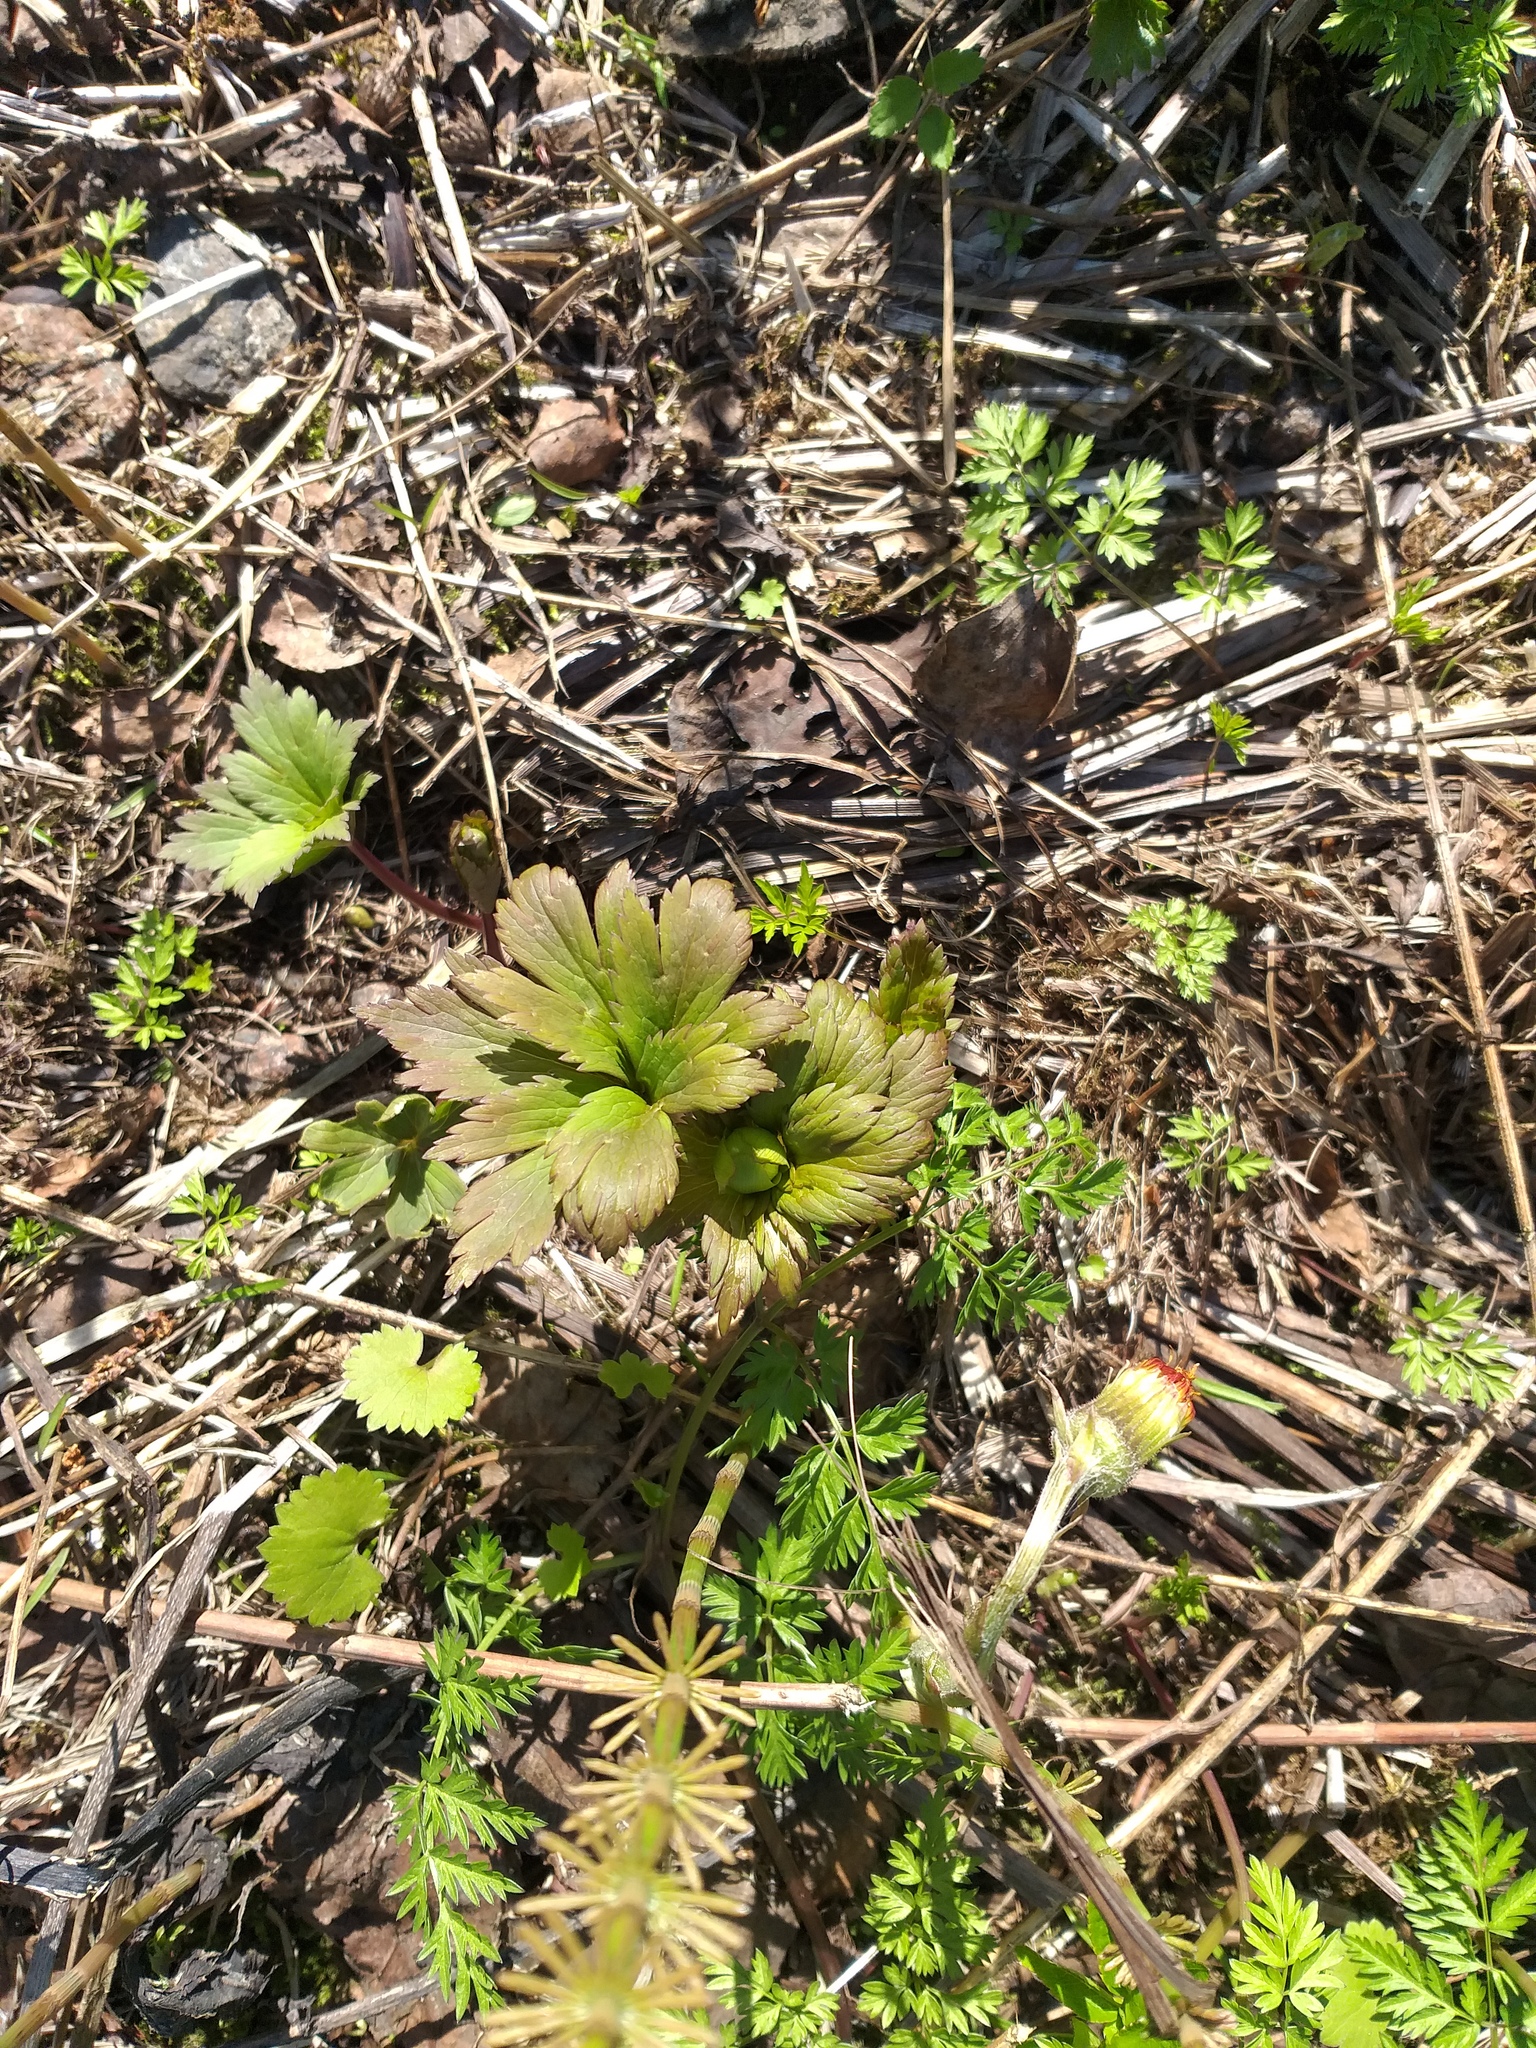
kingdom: Plantae
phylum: Tracheophyta
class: Magnoliopsida
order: Ranunculales
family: Ranunculaceae
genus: Trollius
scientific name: Trollius europaeus
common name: European globeflower
